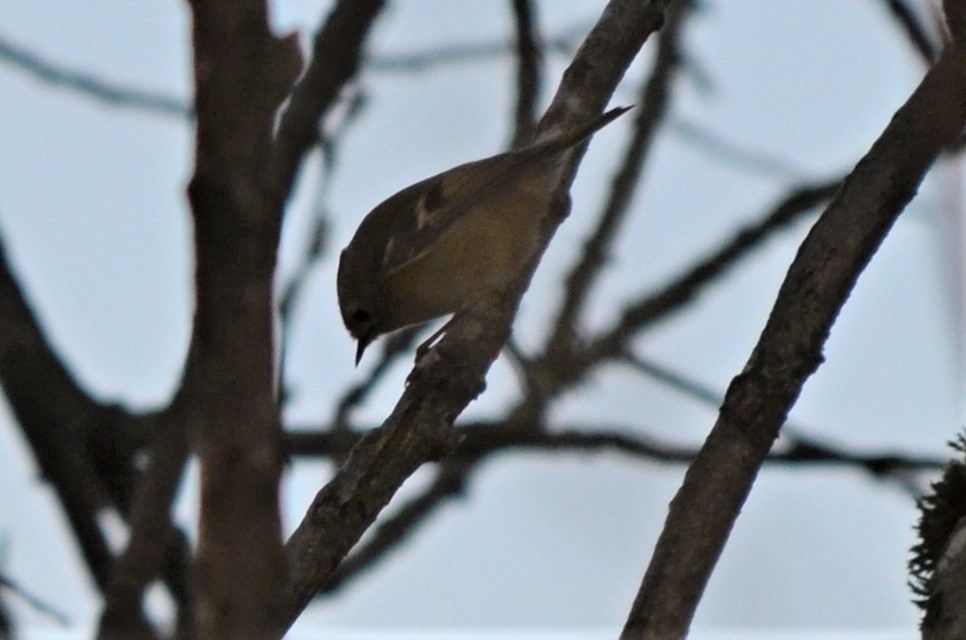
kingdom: Animalia
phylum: Chordata
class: Aves
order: Passeriformes
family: Regulidae
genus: Regulus
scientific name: Regulus regulus
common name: Goldcrest
